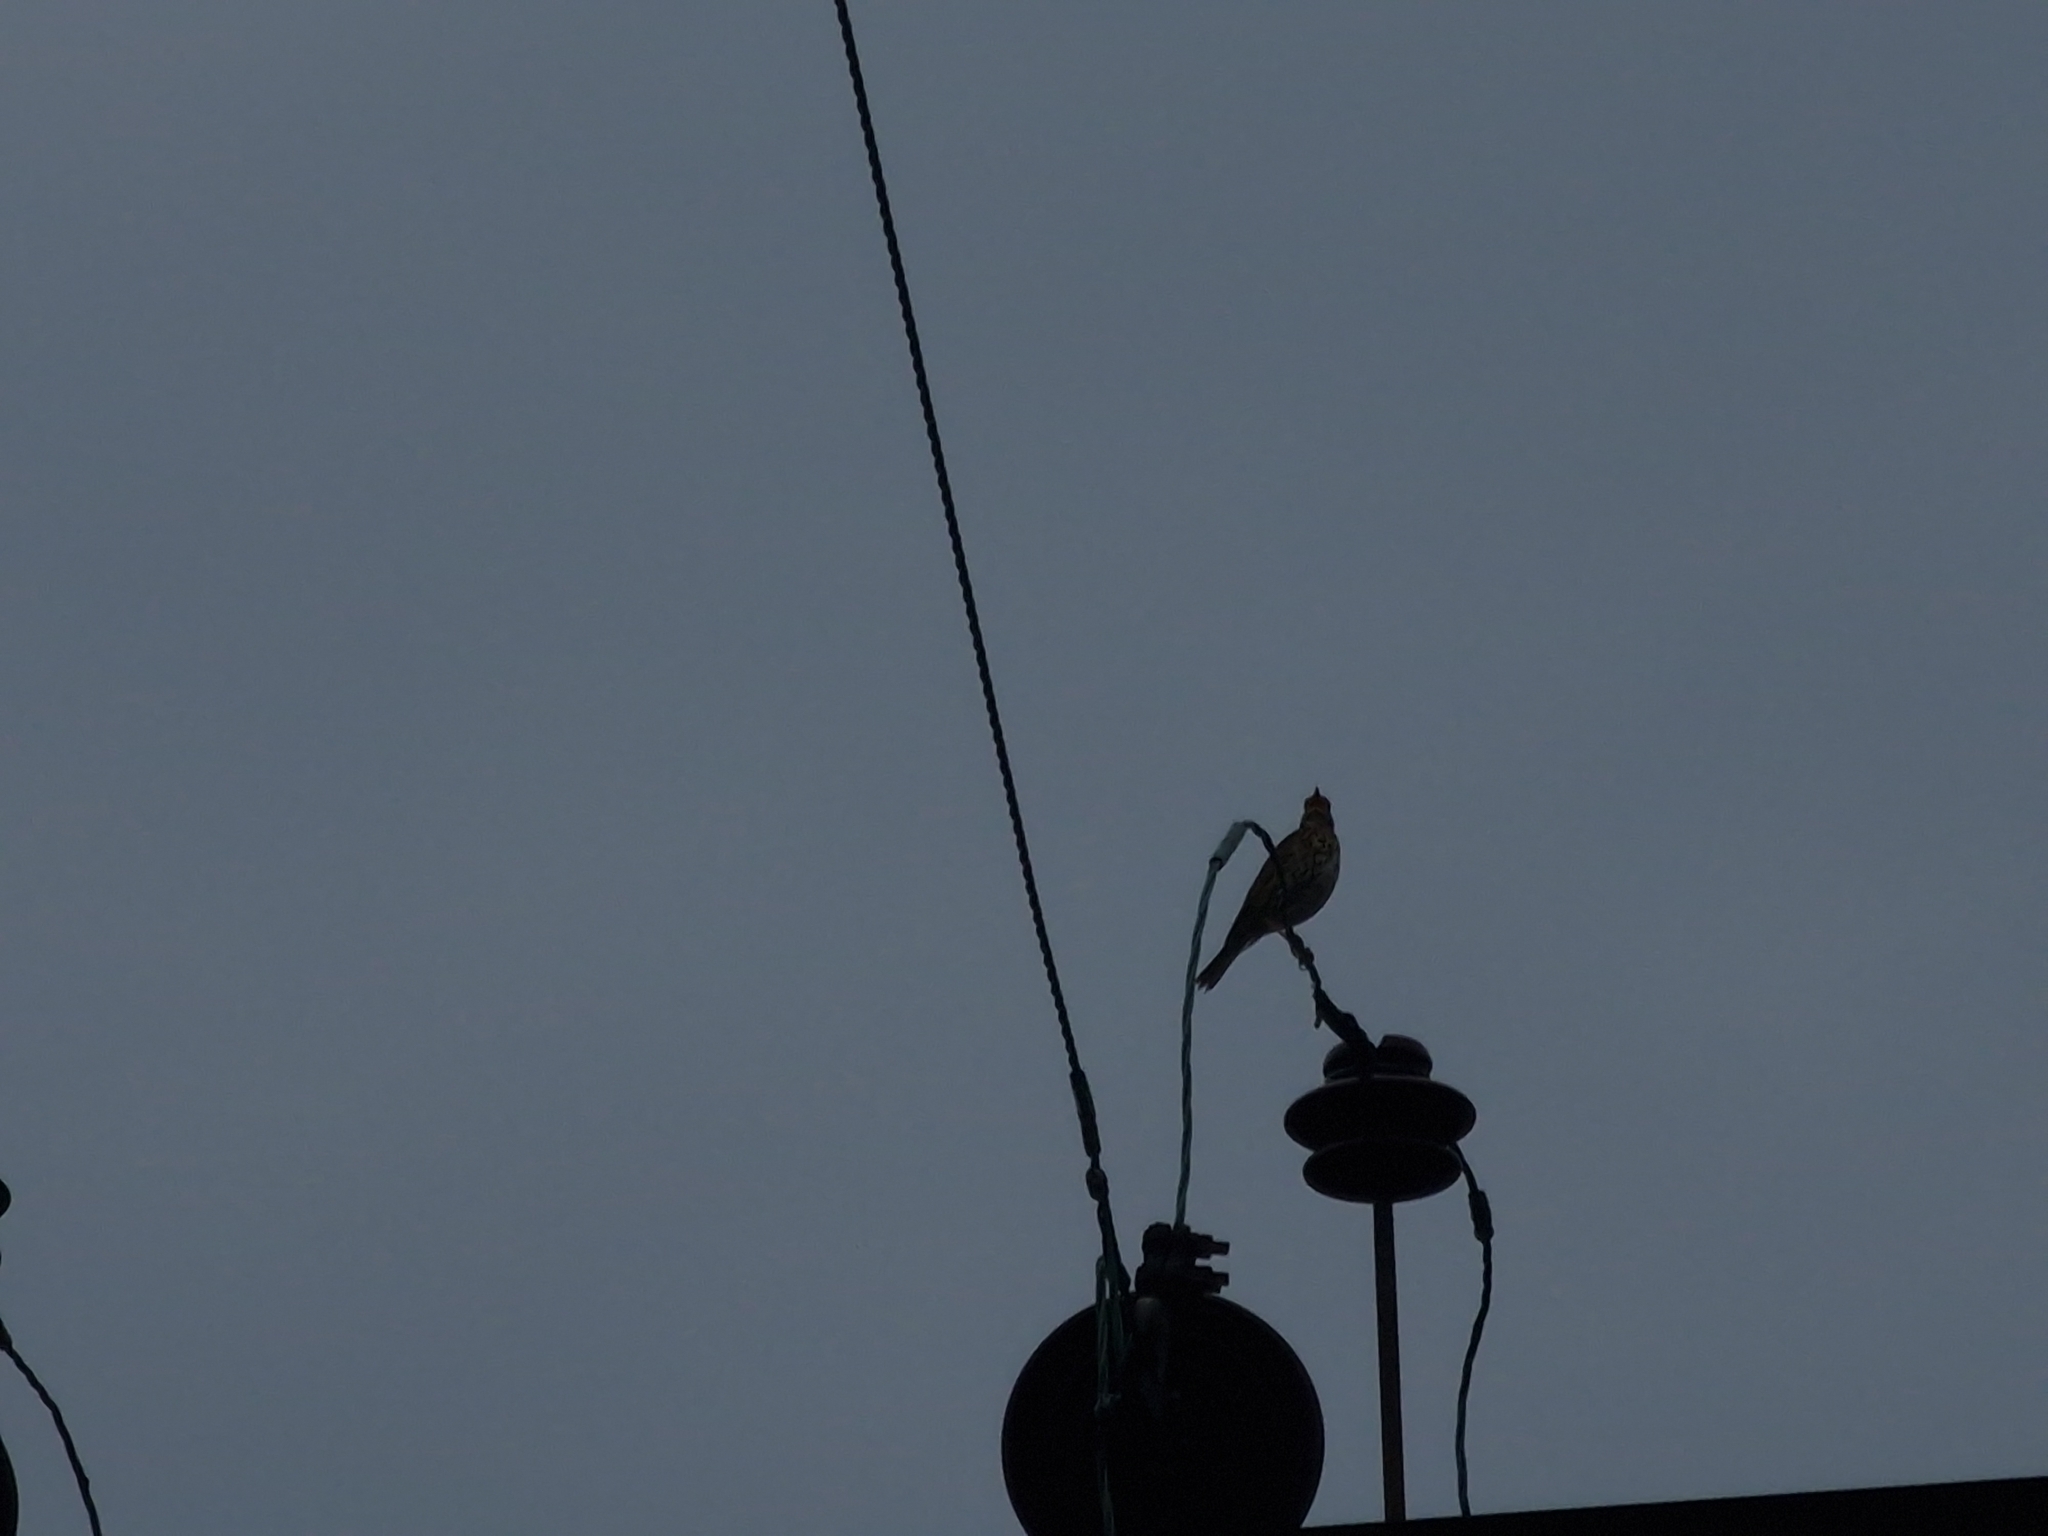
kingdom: Animalia
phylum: Chordata
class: Aves
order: Passeriformes
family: Turdidae
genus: Turdus
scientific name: Turdus philomelos
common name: Song thrush
